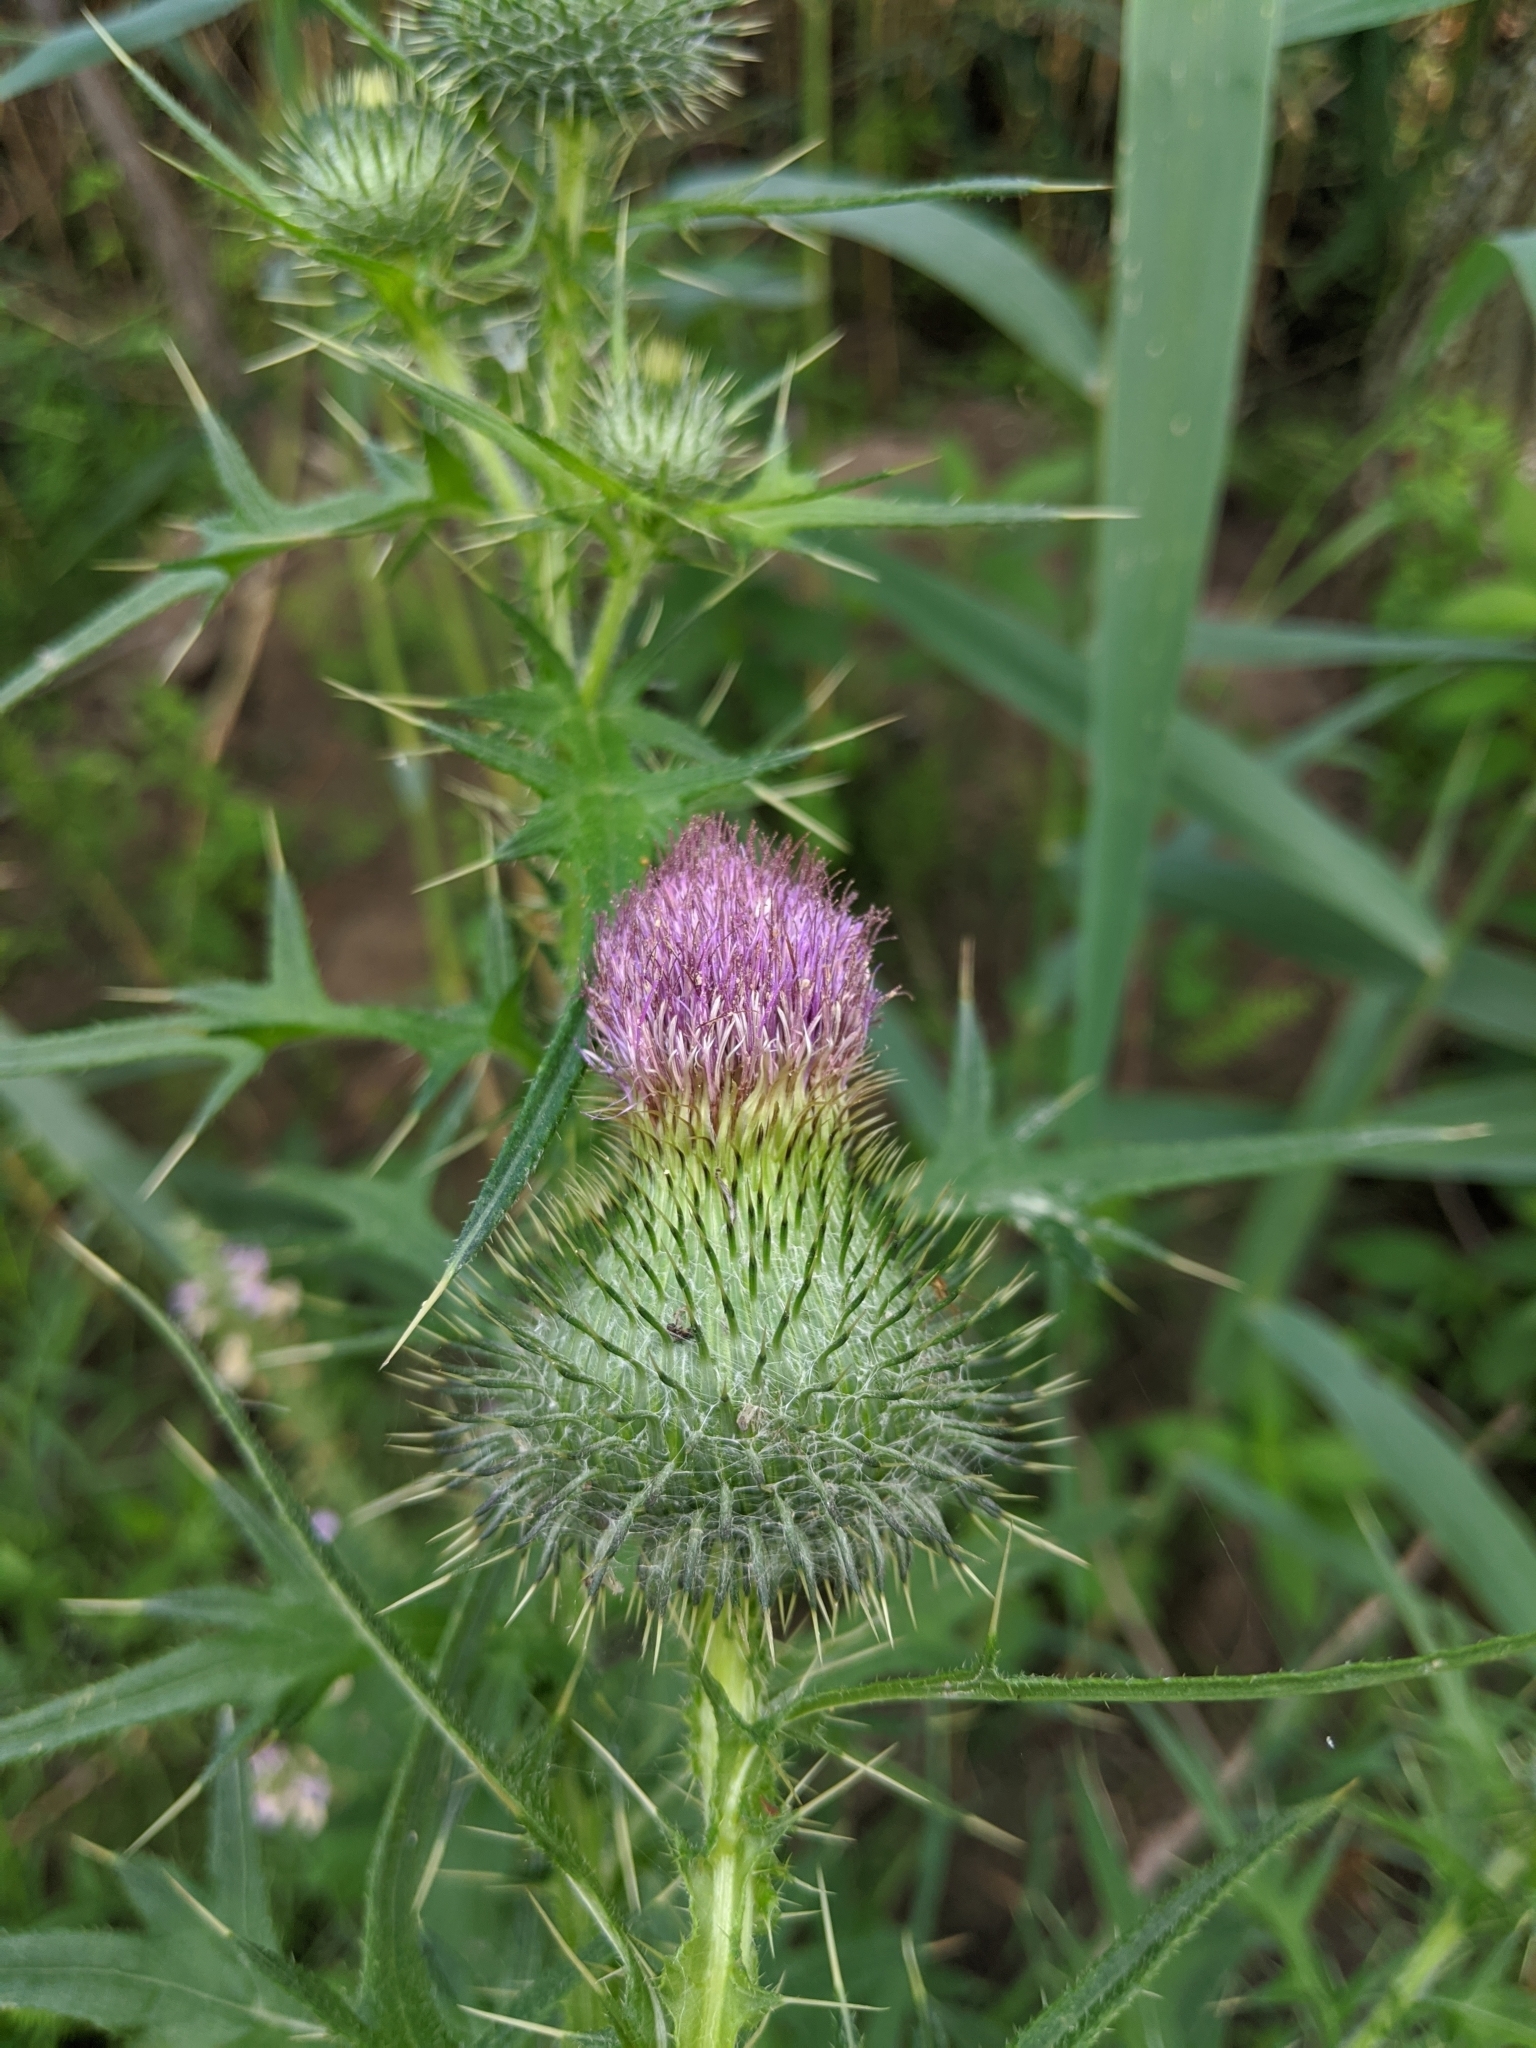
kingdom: Plantae
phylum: Tracheophyta
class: Magnoliopsida
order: Asterales
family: Asteraceae
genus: Cirsium
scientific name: Cirsium vulgare
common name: Bull thistle
